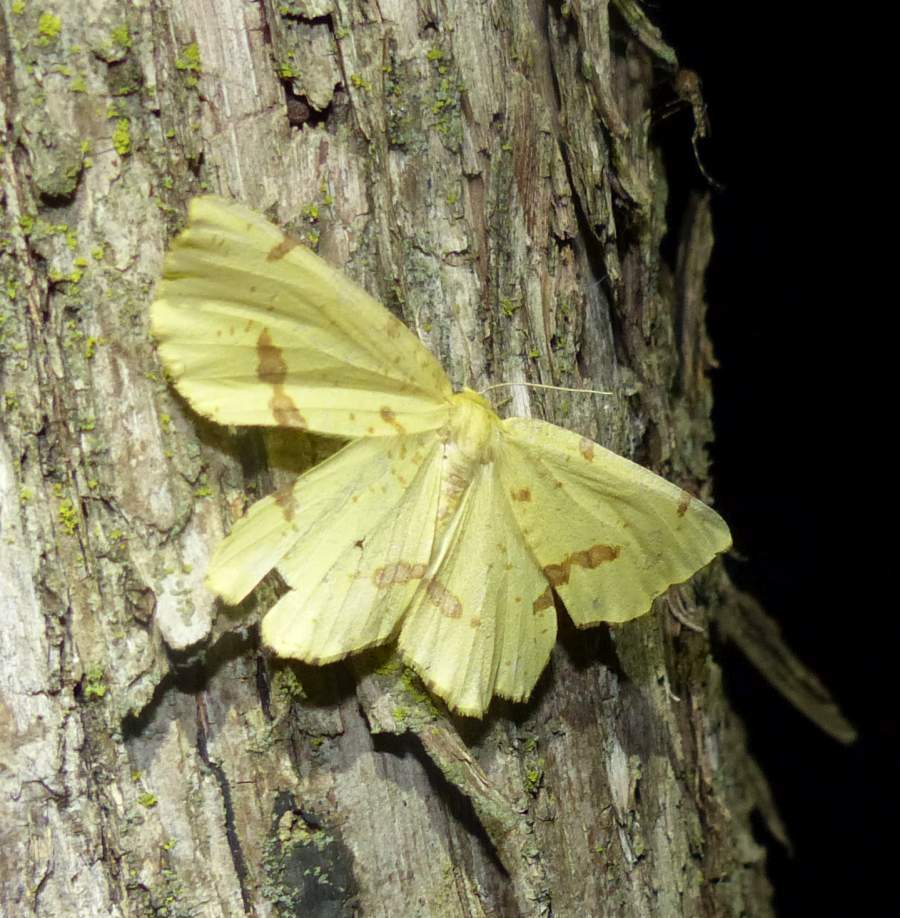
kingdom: Animalia
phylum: Arthropoda
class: Insecta
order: Lepidoptera
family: Geometridae
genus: Xanthotype
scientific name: Xanthotype
